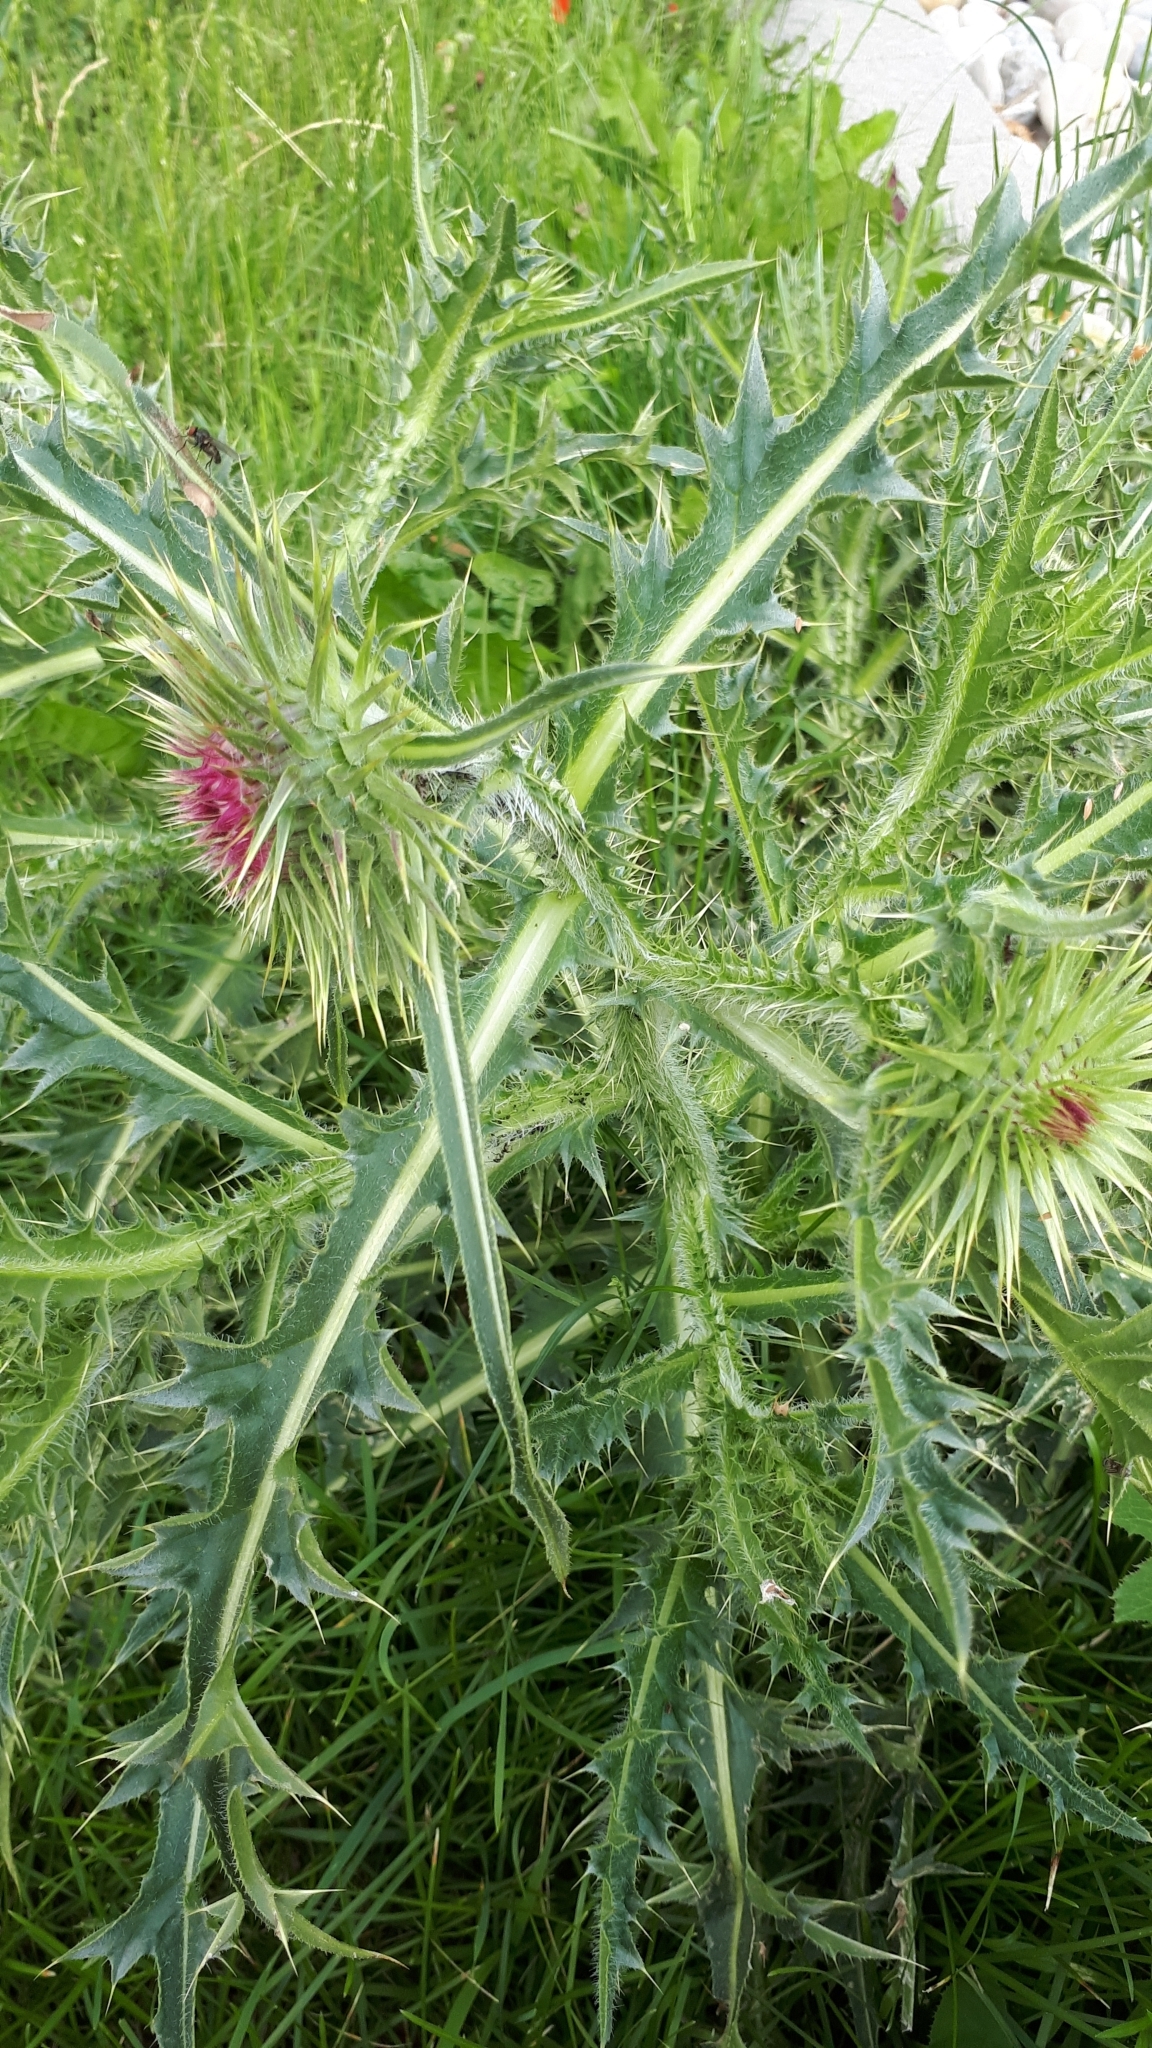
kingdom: Plantae
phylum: Tracheophyta
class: Magnoliopsida
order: Asterales
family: Asteraceae
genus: Carduus
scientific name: Carduus nutans
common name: Musk thistle
